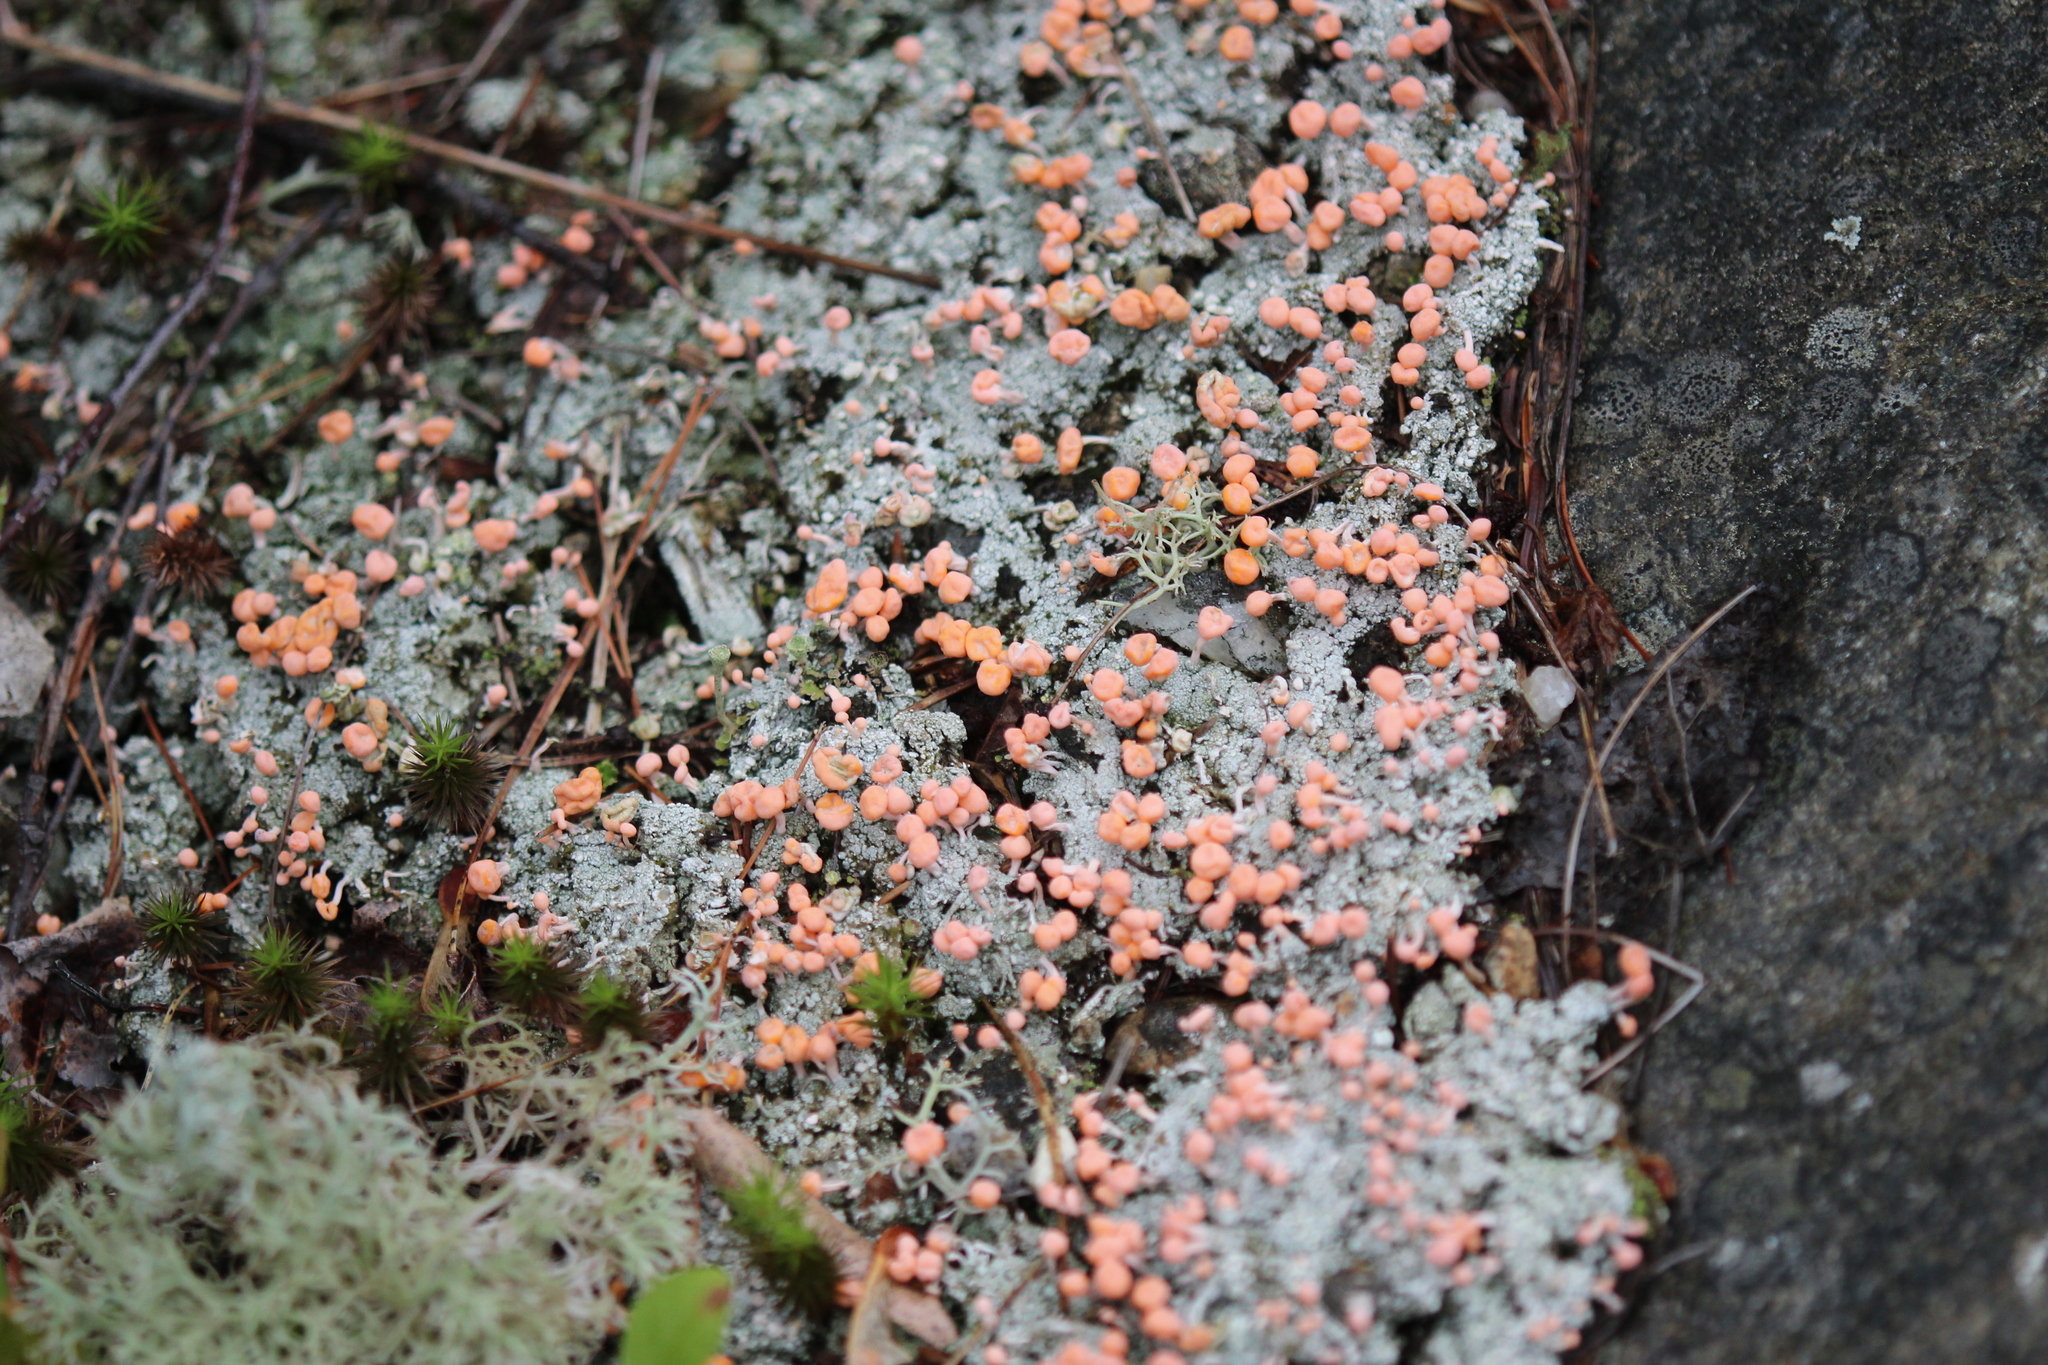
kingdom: Fungi
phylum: Ascomycota
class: Lecanoromycetes
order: Pertusariales
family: Icmadophilaceae
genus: Dibaeis
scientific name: Dibaeis baeomyces
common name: Pink earth lichen
